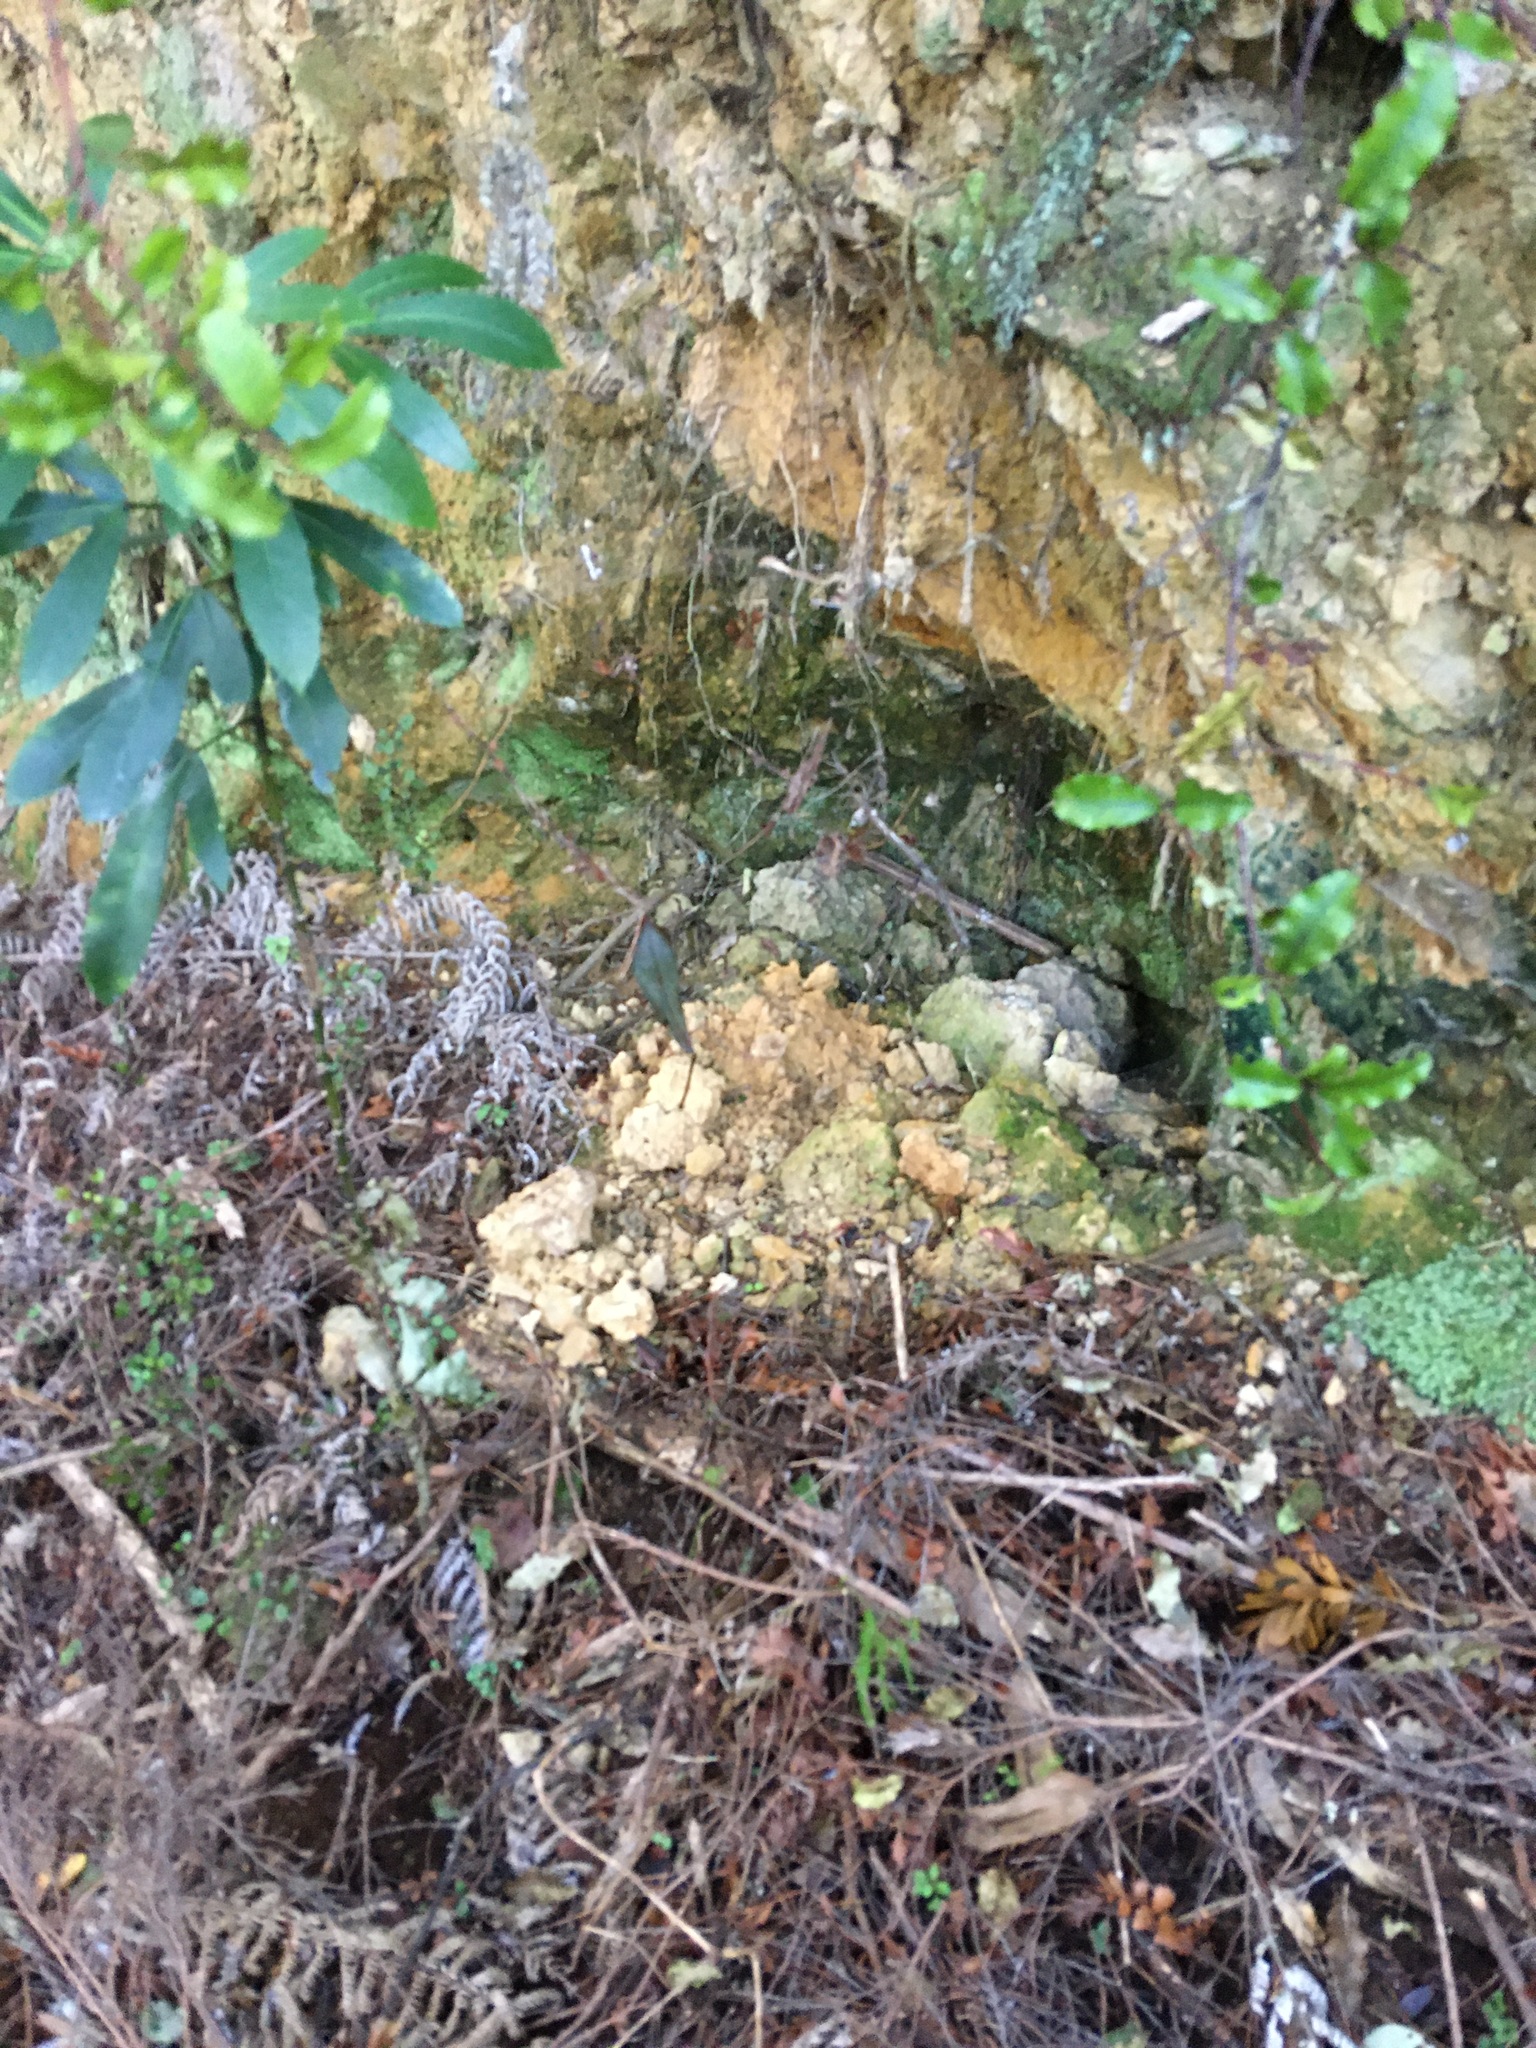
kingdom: Plantae
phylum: Tracheophyta
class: Magnoliopsida
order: Ericales
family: Primulaceae
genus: Myrsine
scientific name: Myrsine australis
